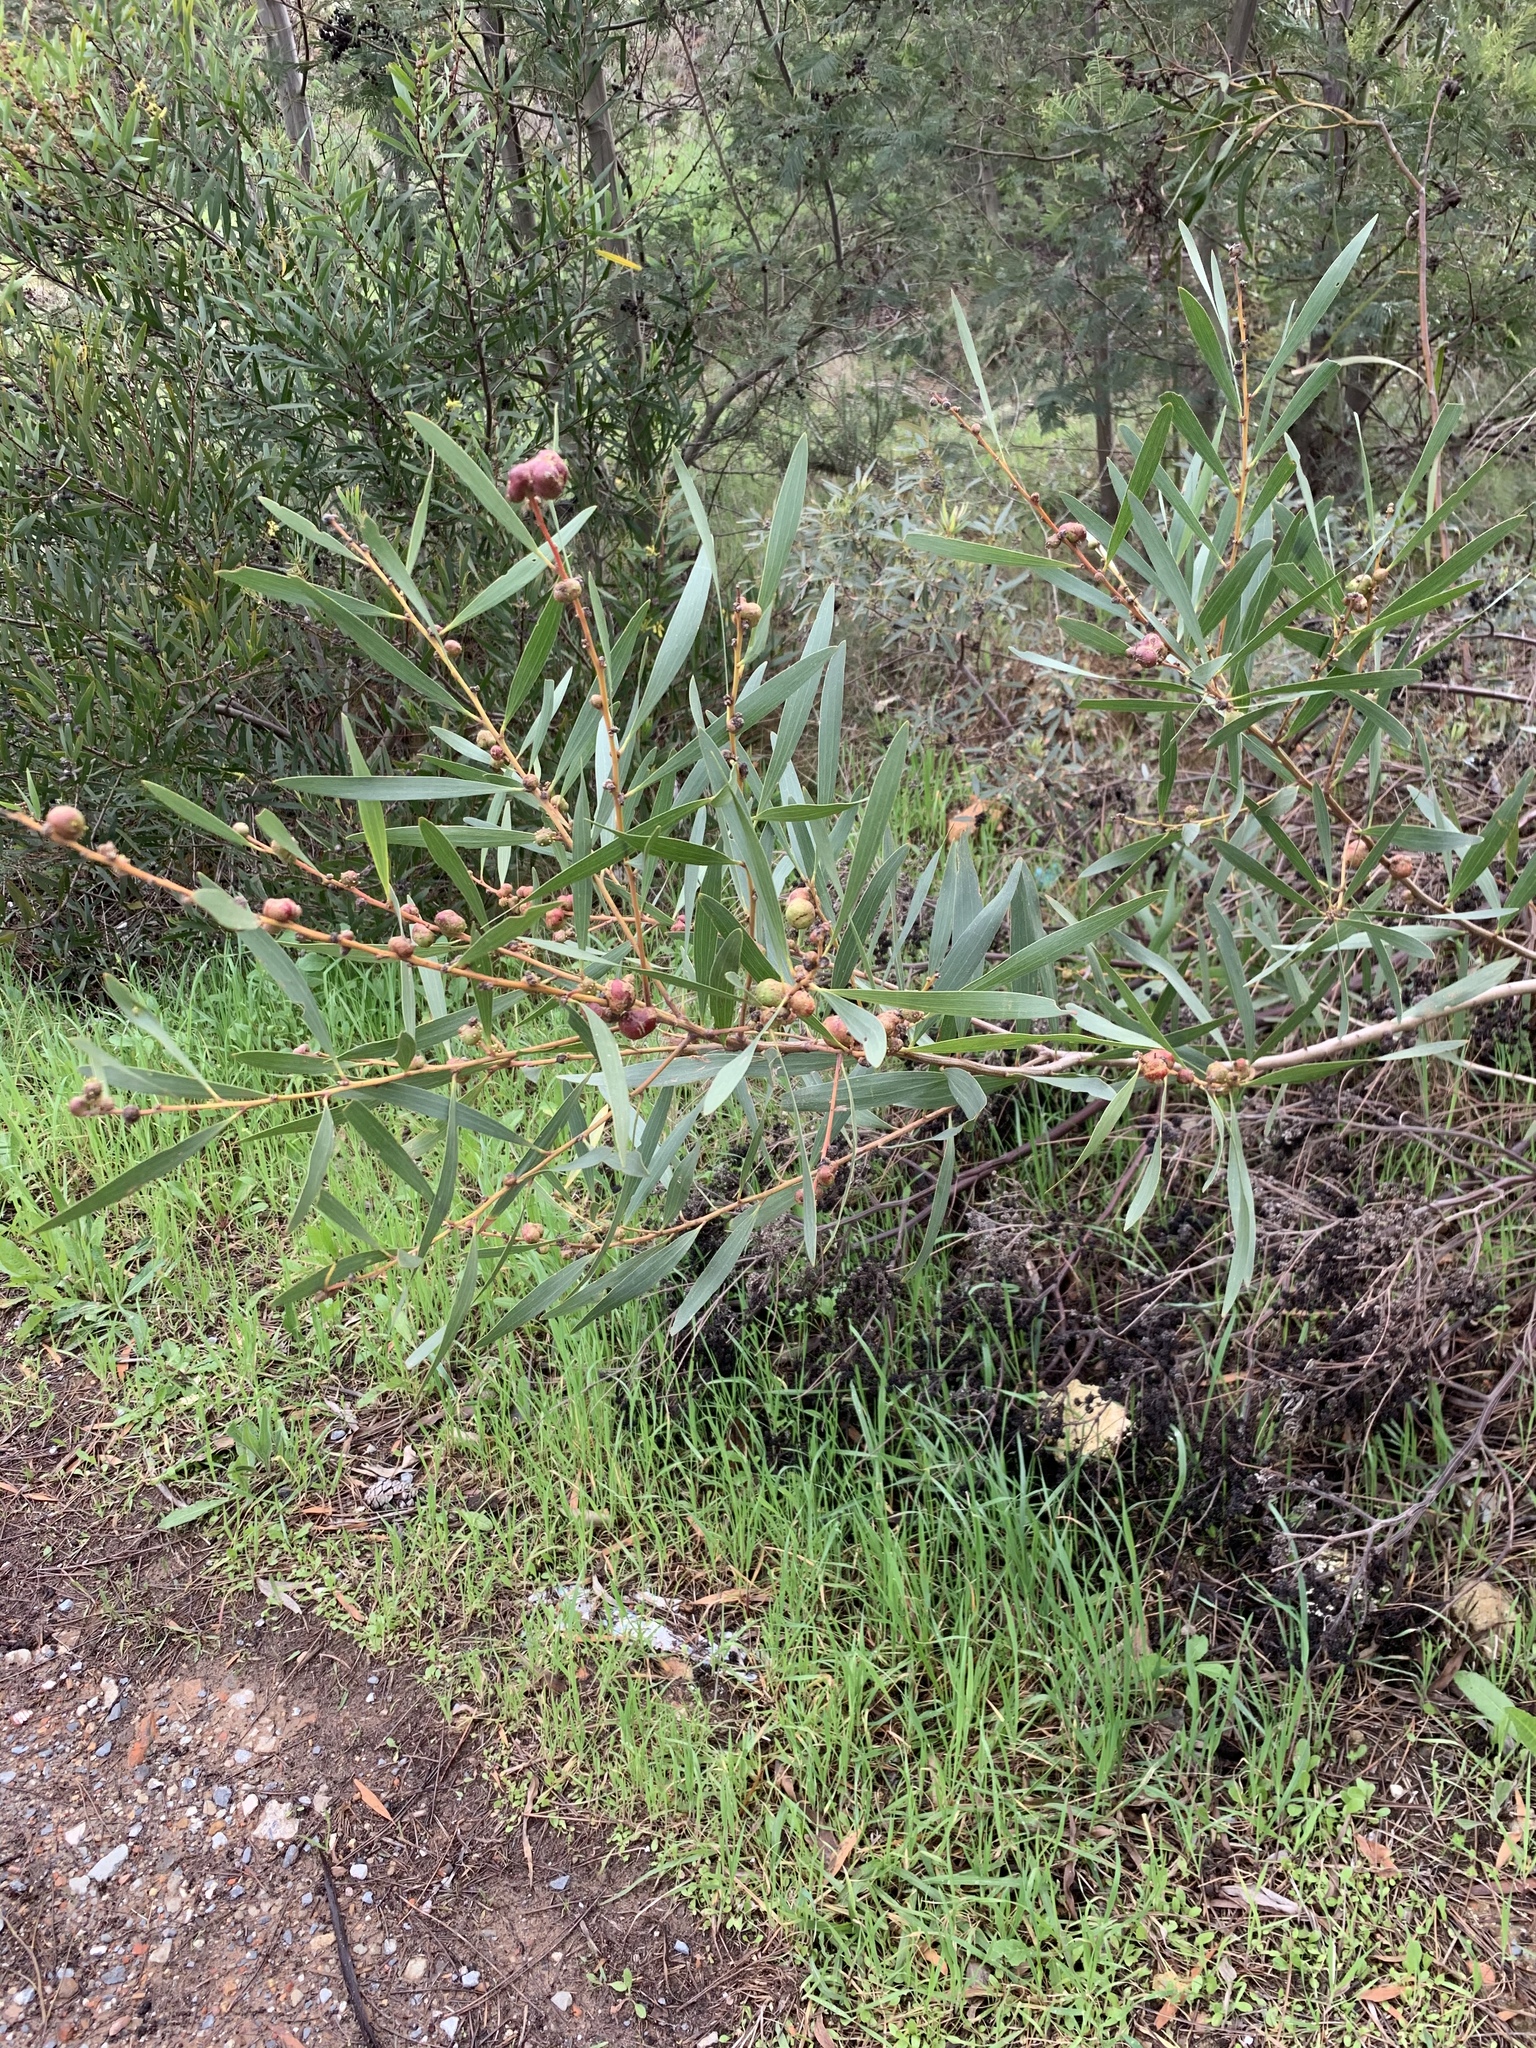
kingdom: Plantae
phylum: Tracheophyta
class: Magnoliopsida
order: Fabales
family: Fabaceae
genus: Acacia
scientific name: Acacia longifolia
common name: Sydney golden wattle
